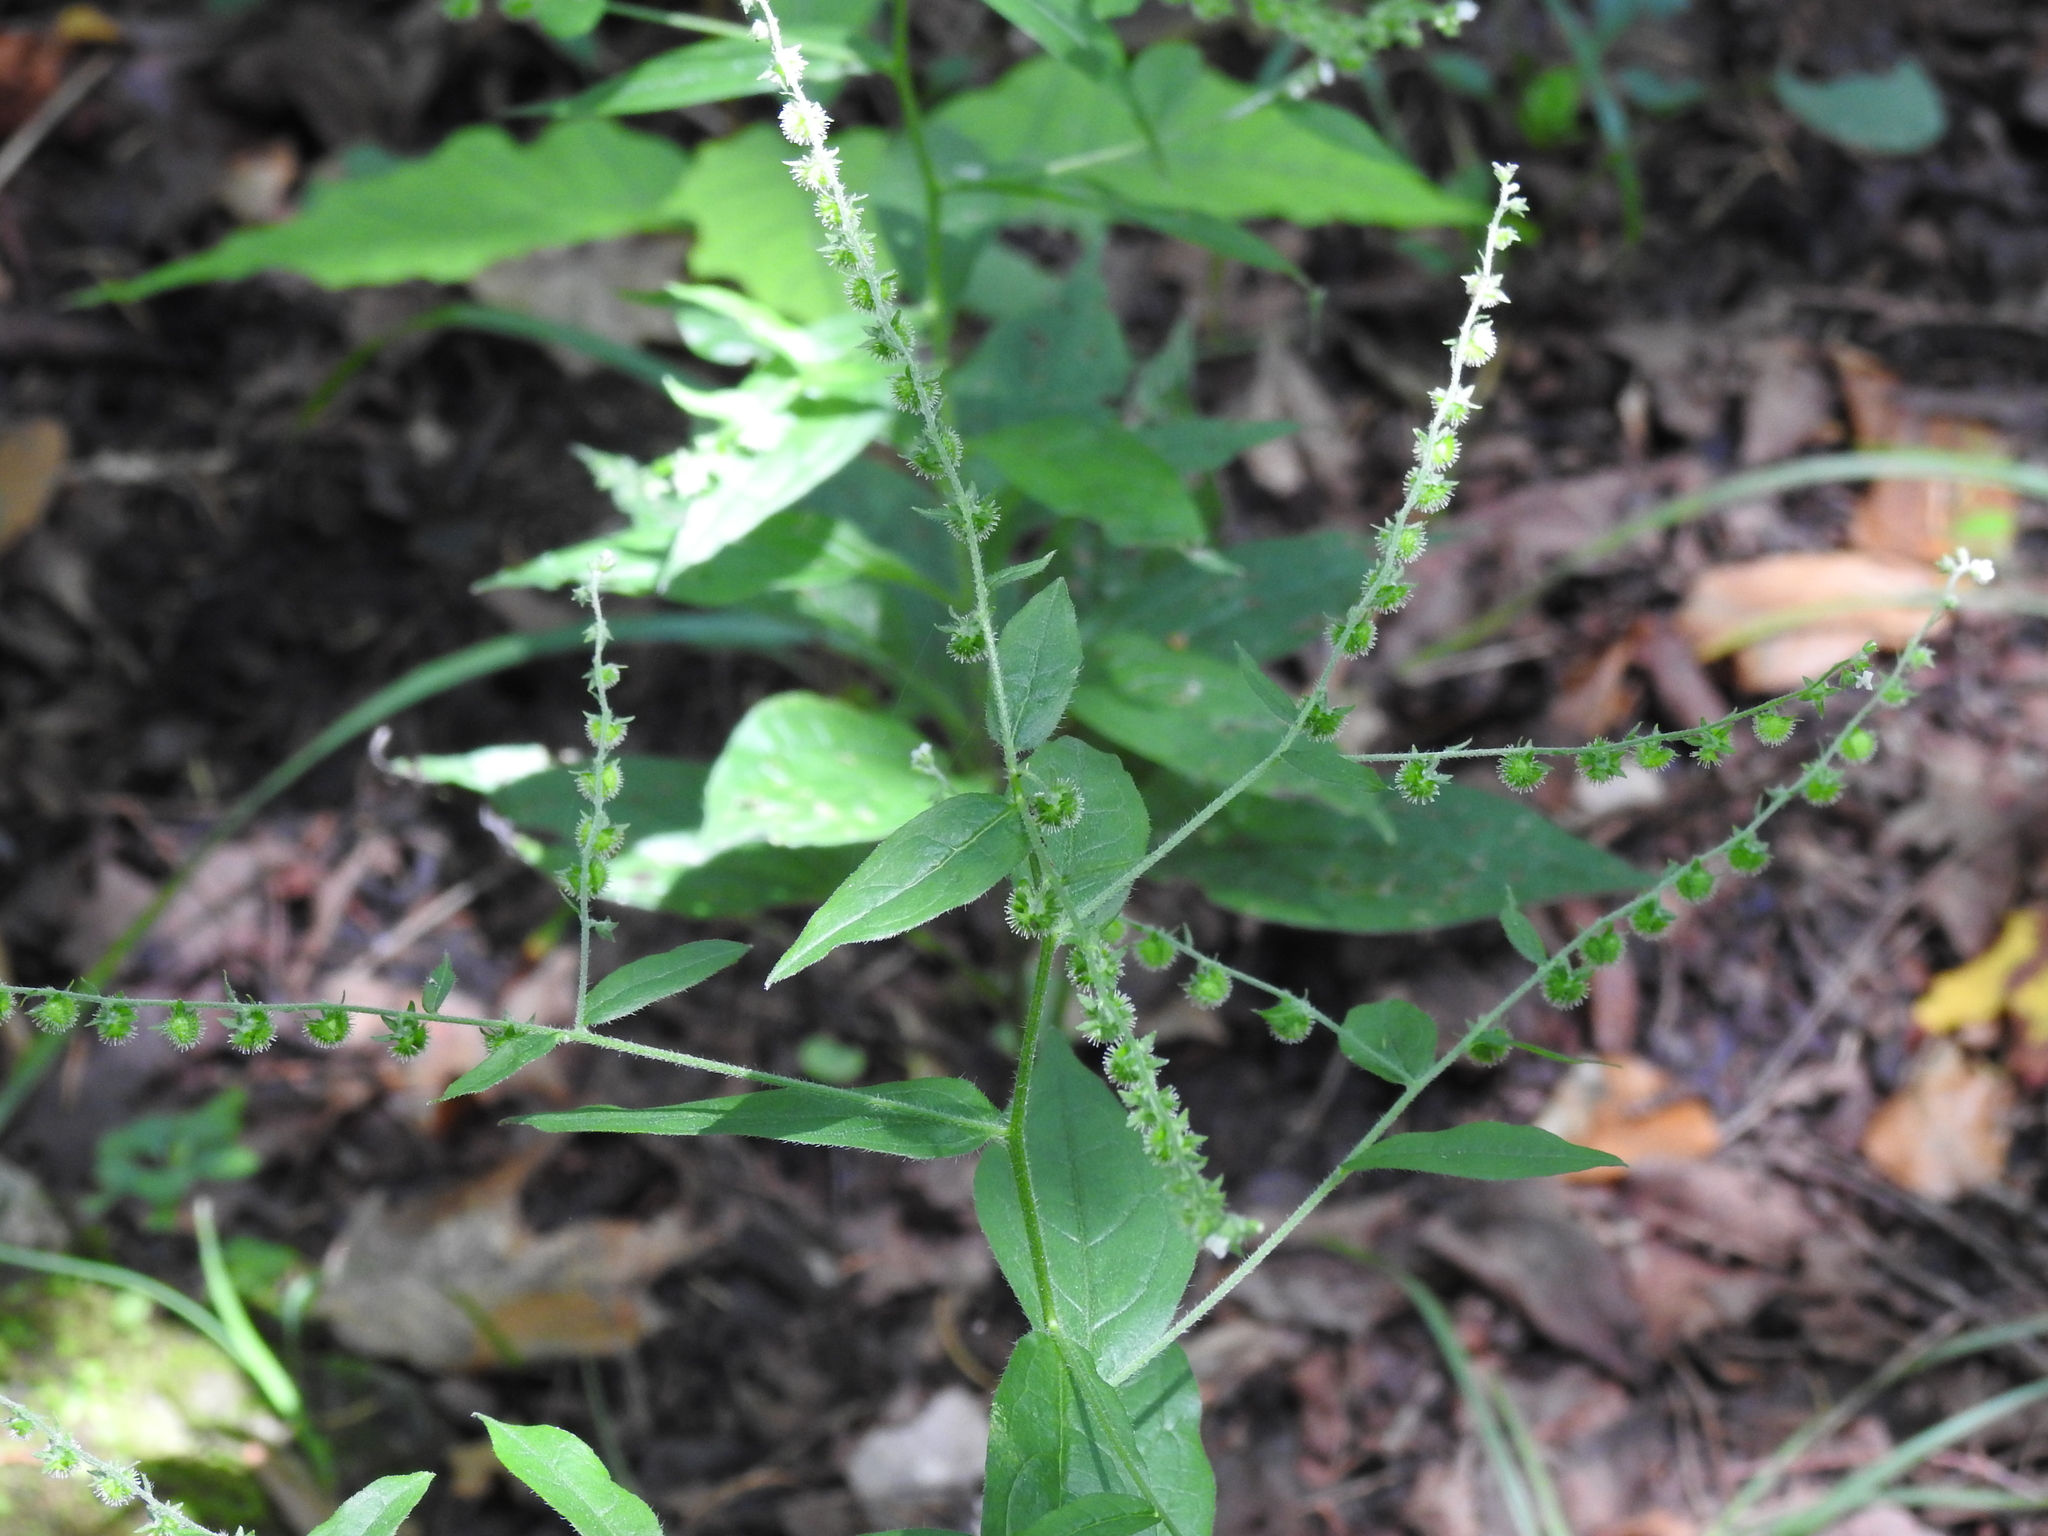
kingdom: Plantae
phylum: Tracheophyta
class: Magnoliopsida
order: Boraginales
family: Boraginaceae
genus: Hackelia
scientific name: Hackelia virginiana
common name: Beggar's-lice
